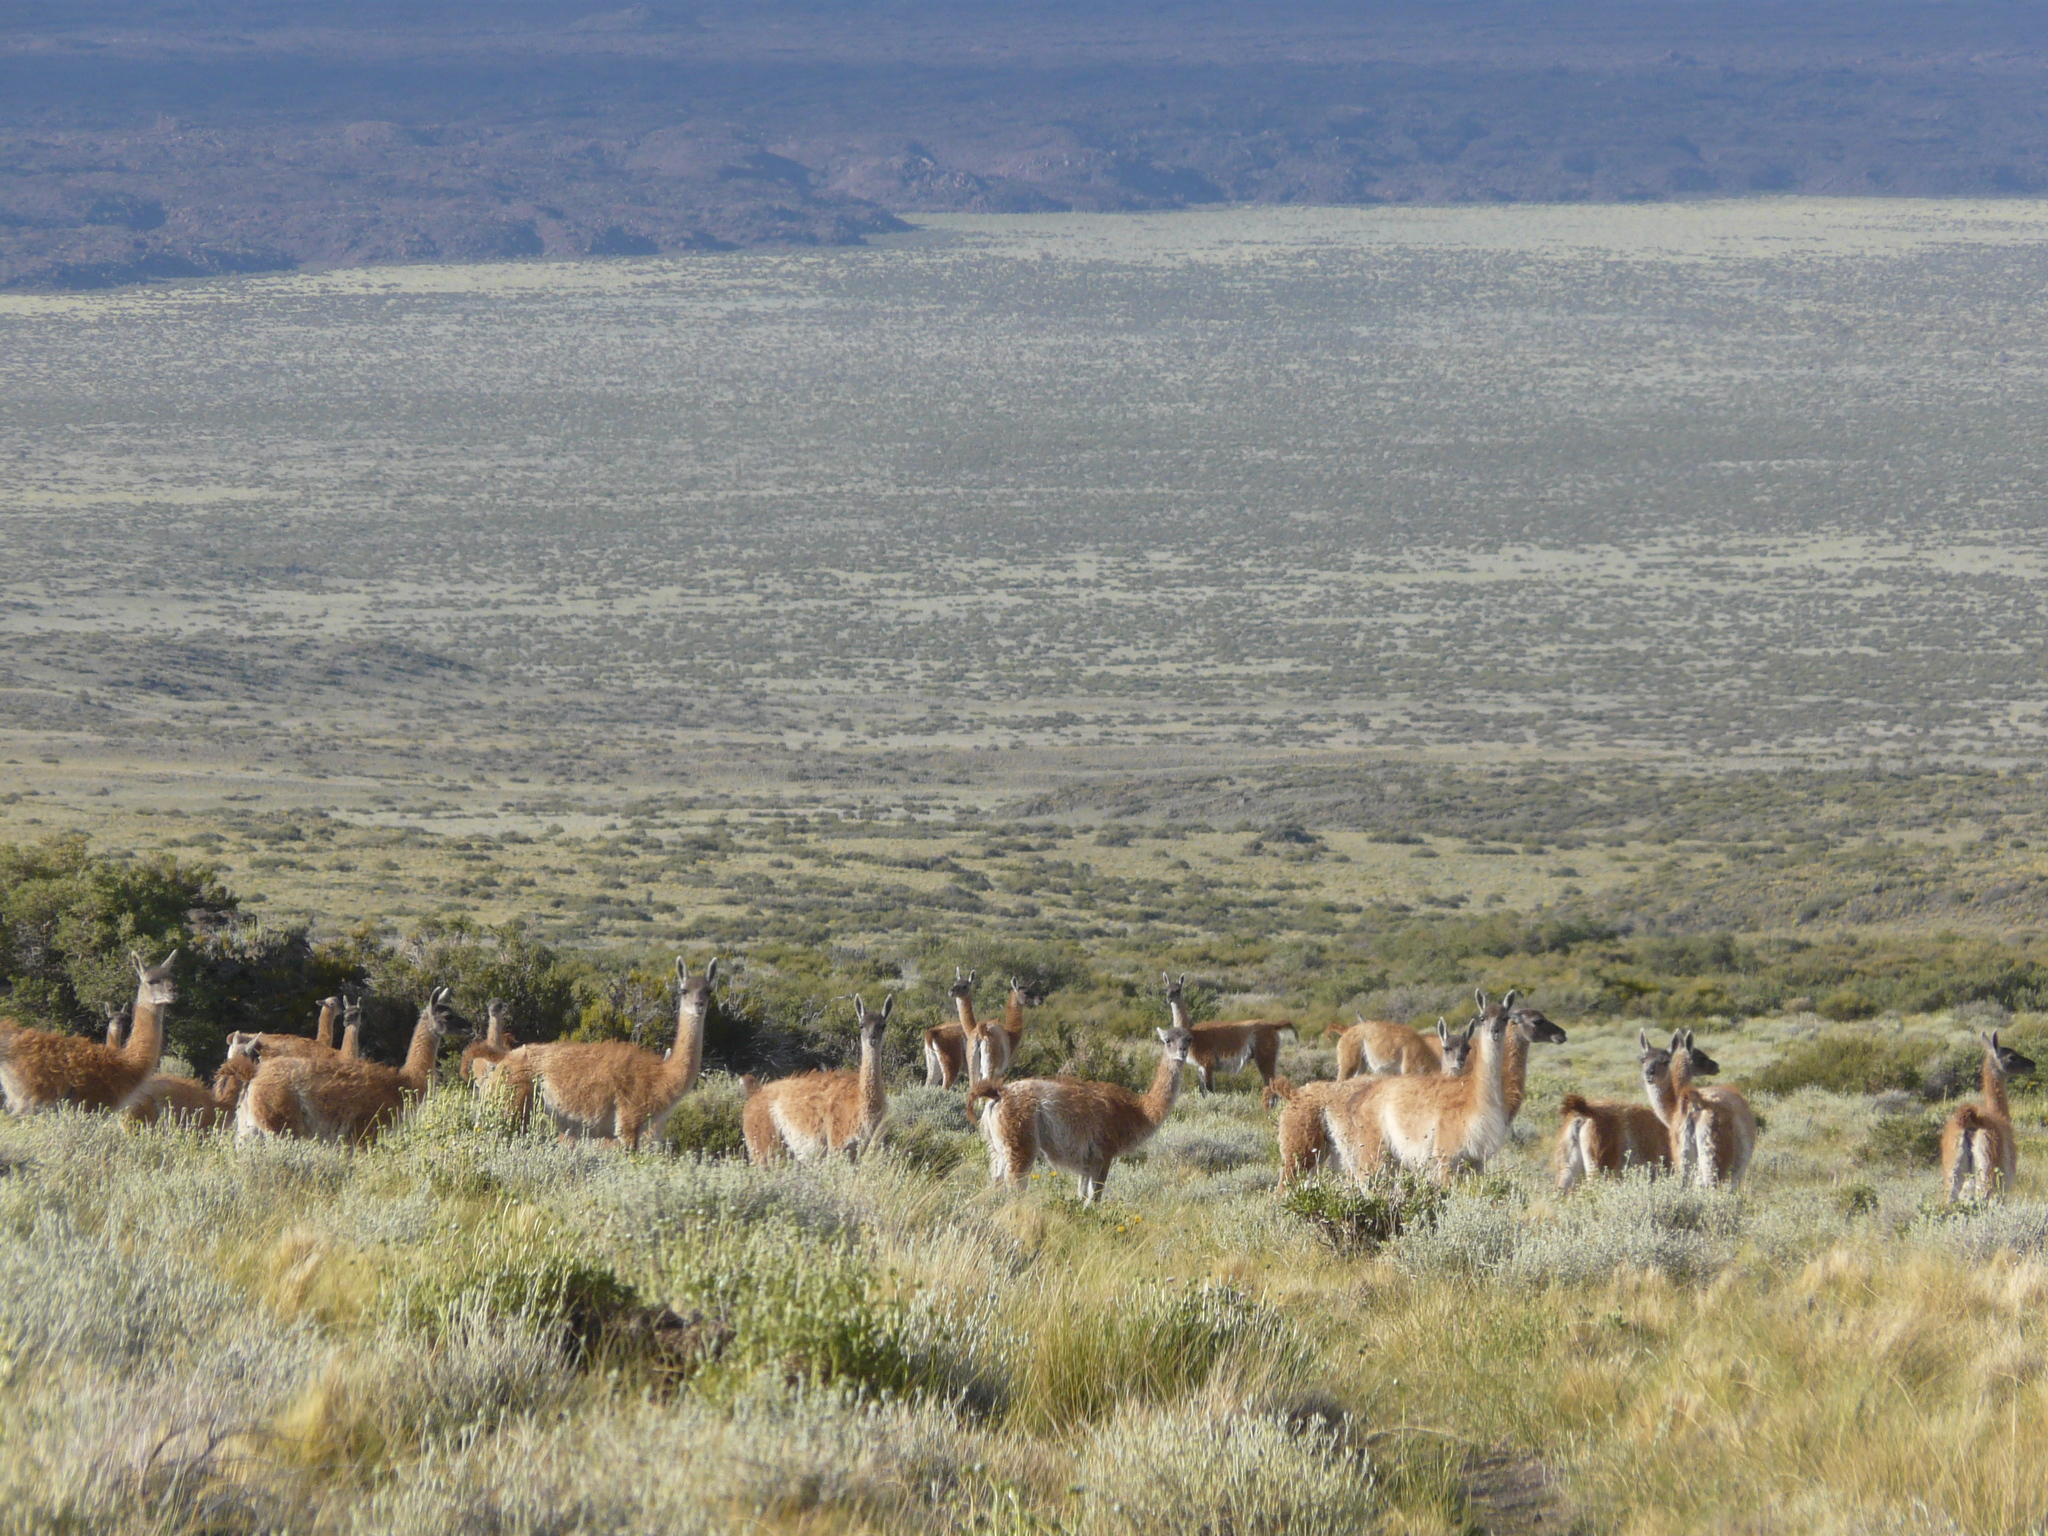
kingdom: Animalia
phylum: Chordata
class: Mammalia
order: Artiodactyla
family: Camelidae
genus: Lama
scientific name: Lama glama
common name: Llama
